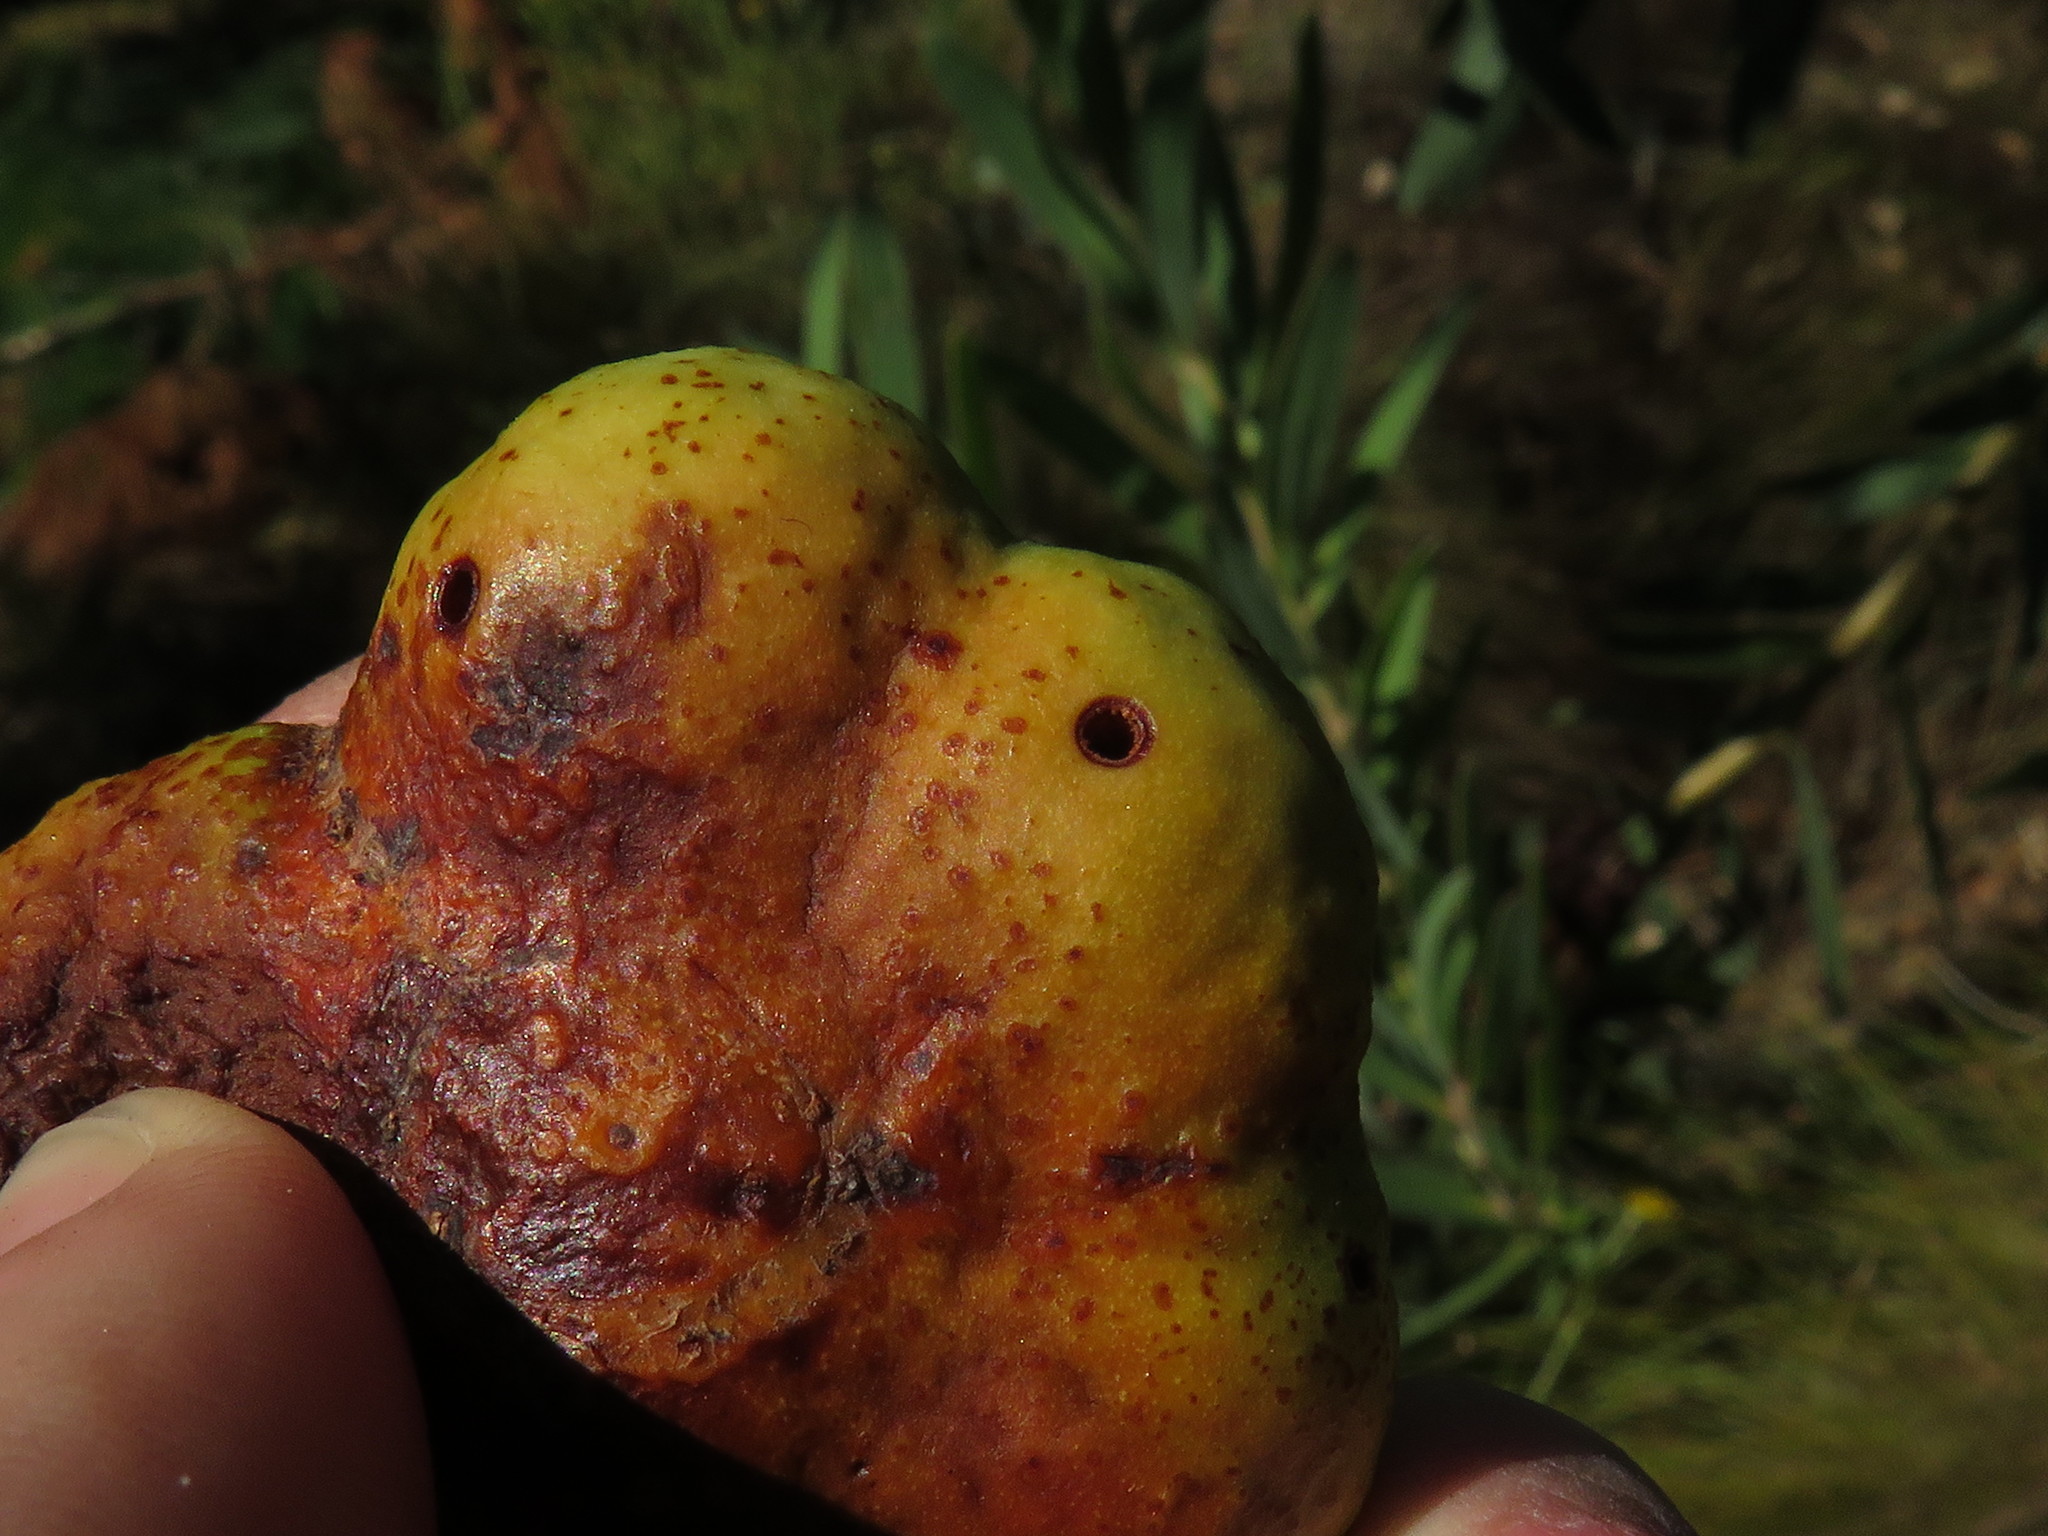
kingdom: Plantae
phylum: Tracheophyta
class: Magnoliopsida
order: Fabales
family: Fabaceae
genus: Acacia
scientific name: Acacia longifolia
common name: Sydney golden wattle
